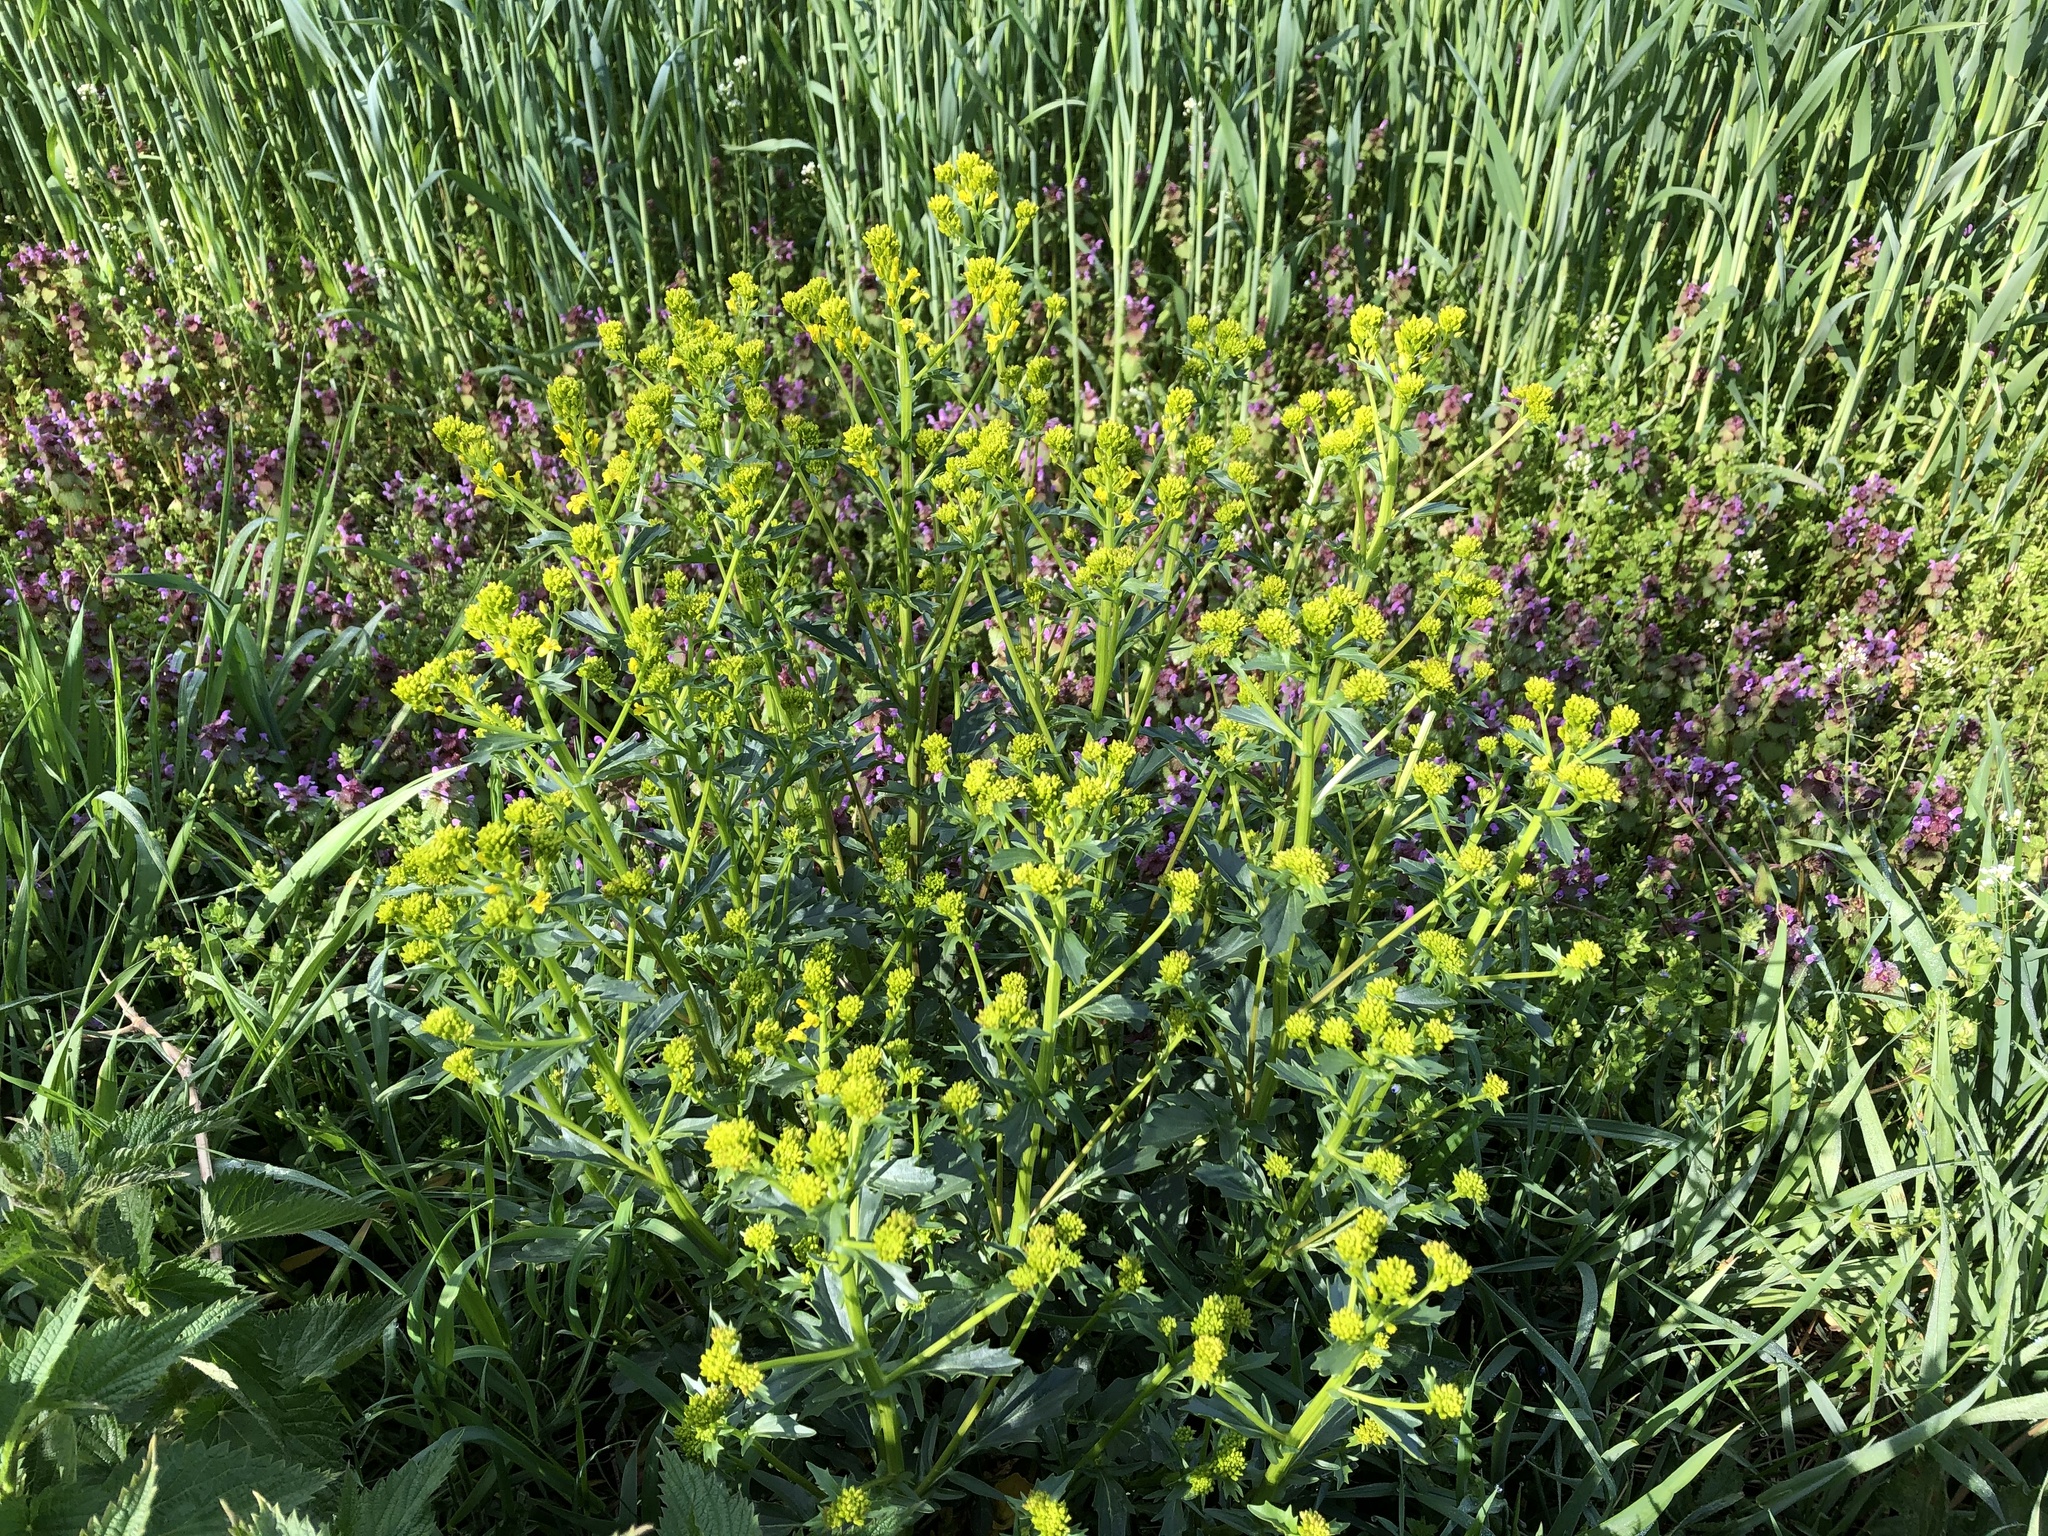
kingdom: Plantae
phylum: Tracheophyta
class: Magnoliopsida
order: Brassicales
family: Brassicaceae
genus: Barbarea
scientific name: Barbarea vulgaris
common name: Cressy-greens
